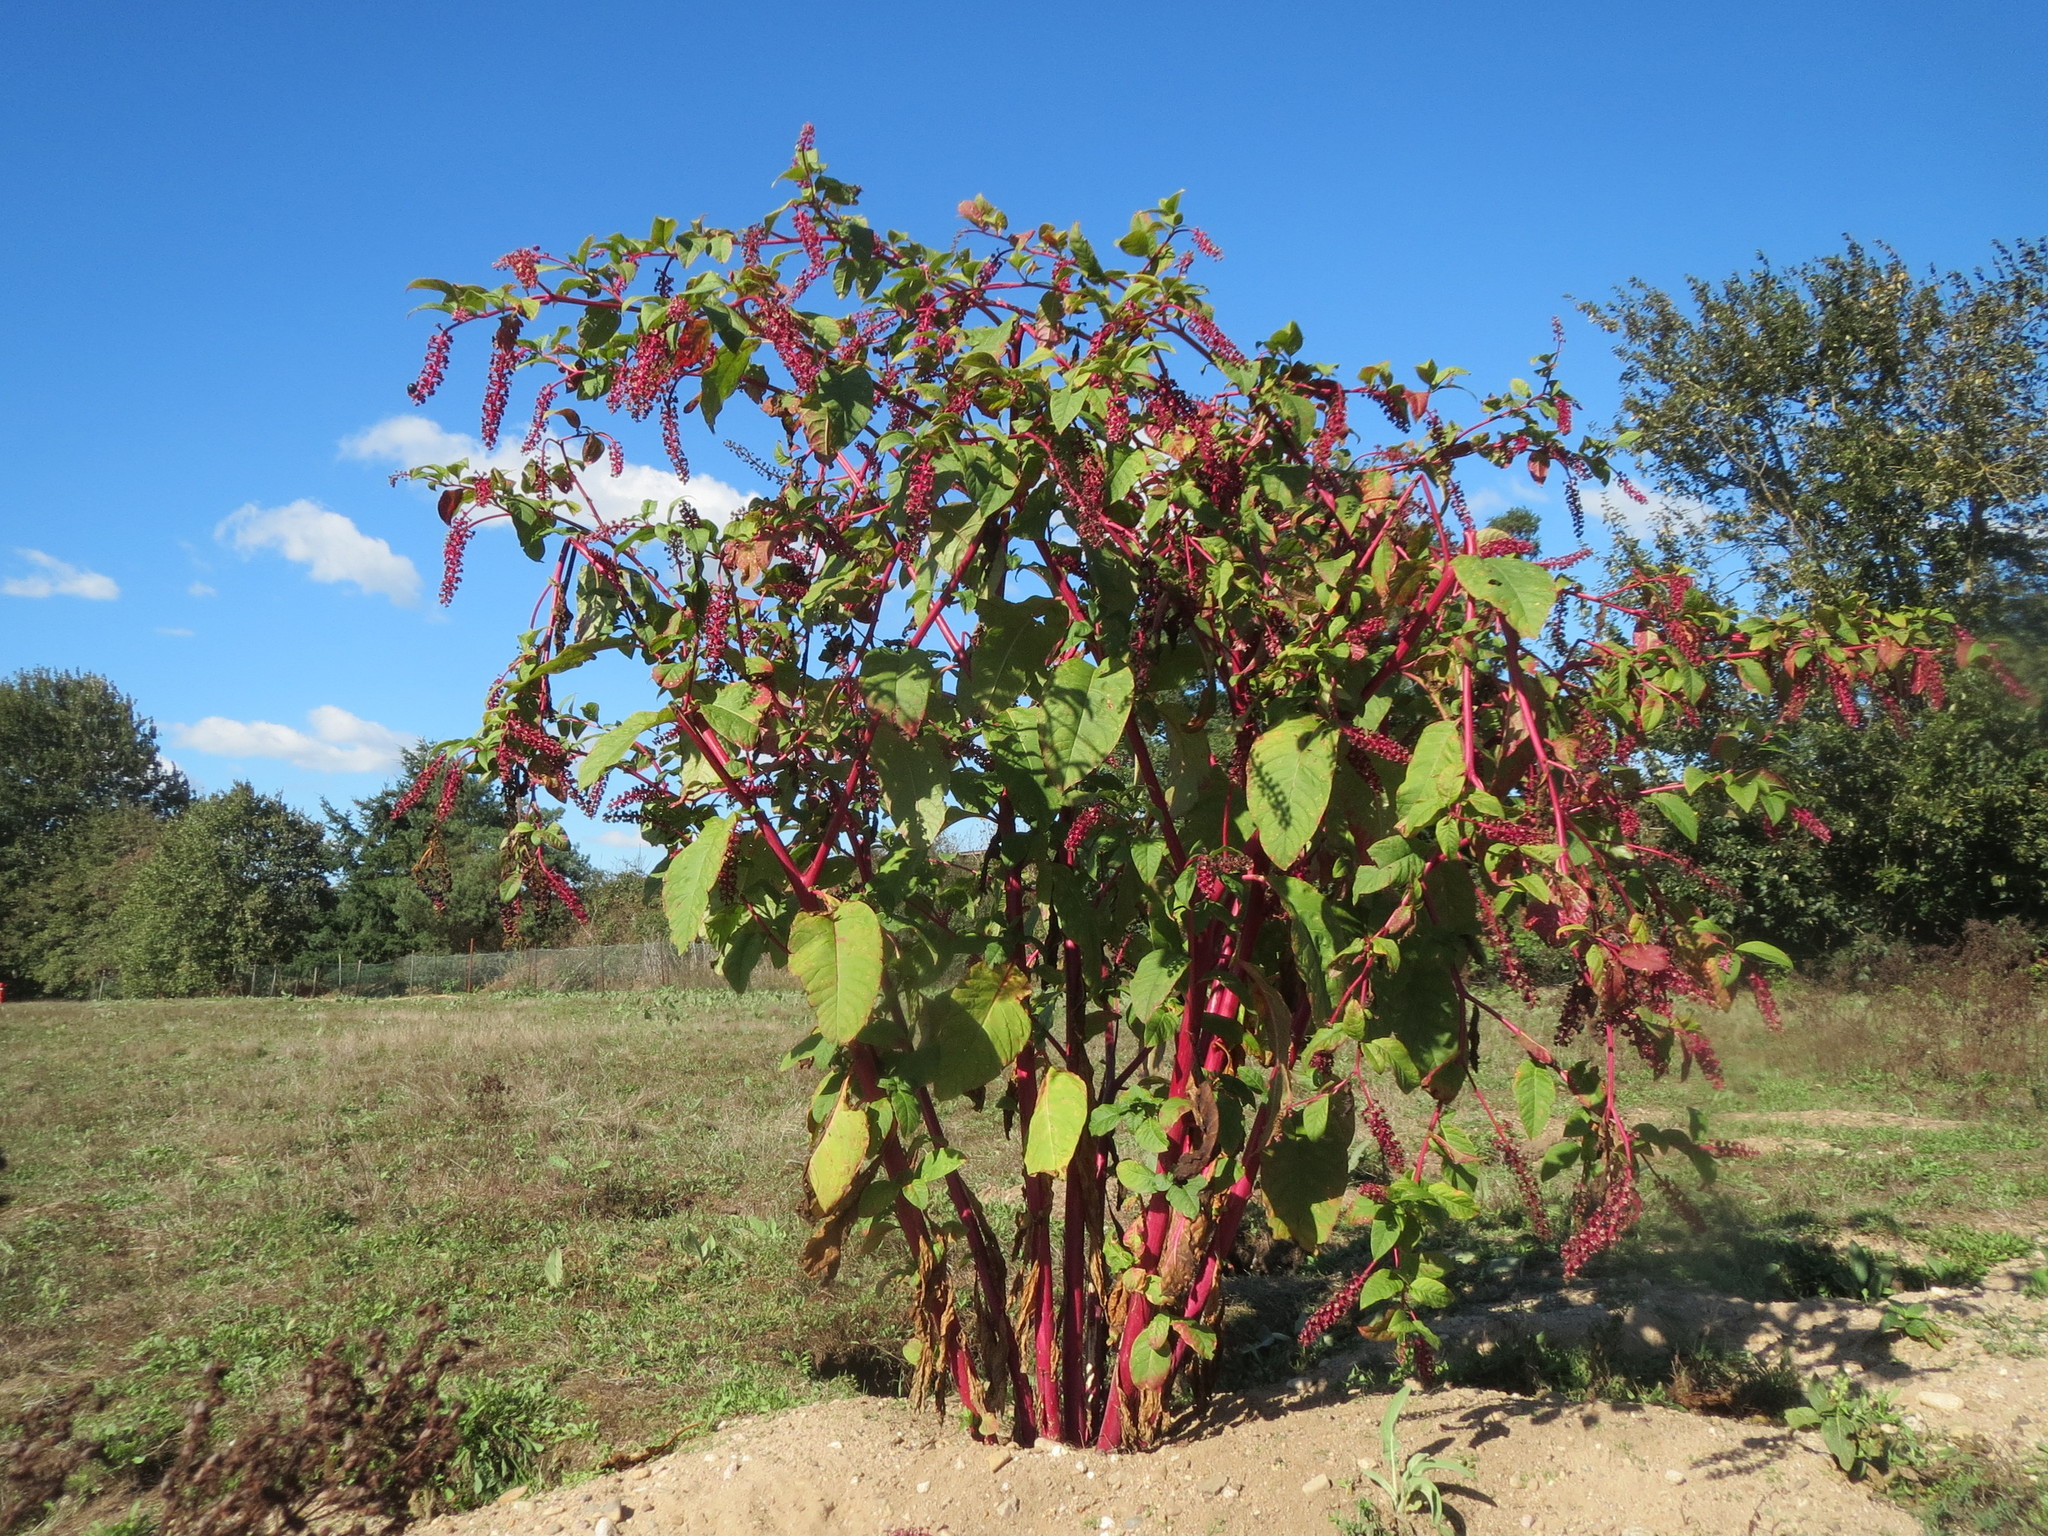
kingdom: Plantae
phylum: Tracheophyta
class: Magnoliopsida
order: Caryophyllales
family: Phytolaccaceae
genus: Phytolacca
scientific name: Phytolacca americana
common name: American pokeweed
